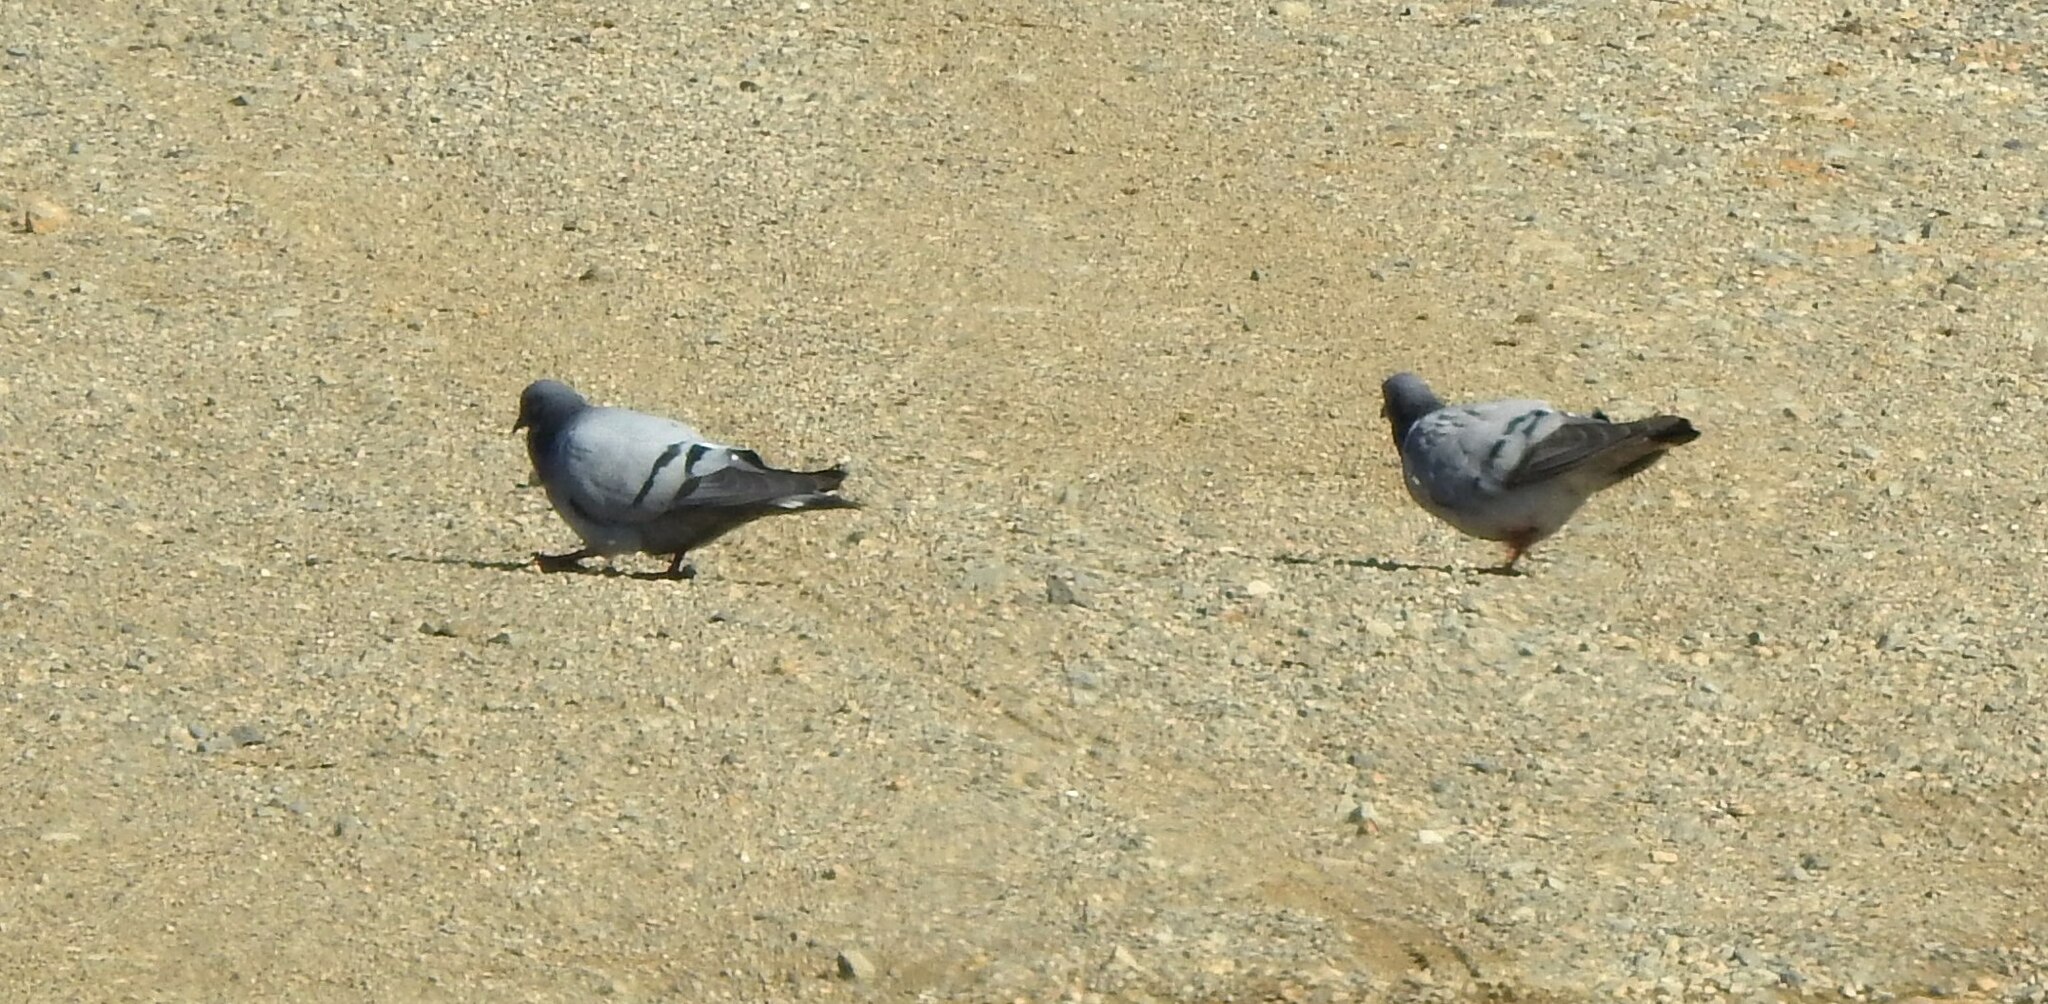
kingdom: Animalia
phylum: Chordata
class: Aves
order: Columbiformes
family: Columbidae
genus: Columba
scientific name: Columba rupestris
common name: Hill pigeon
